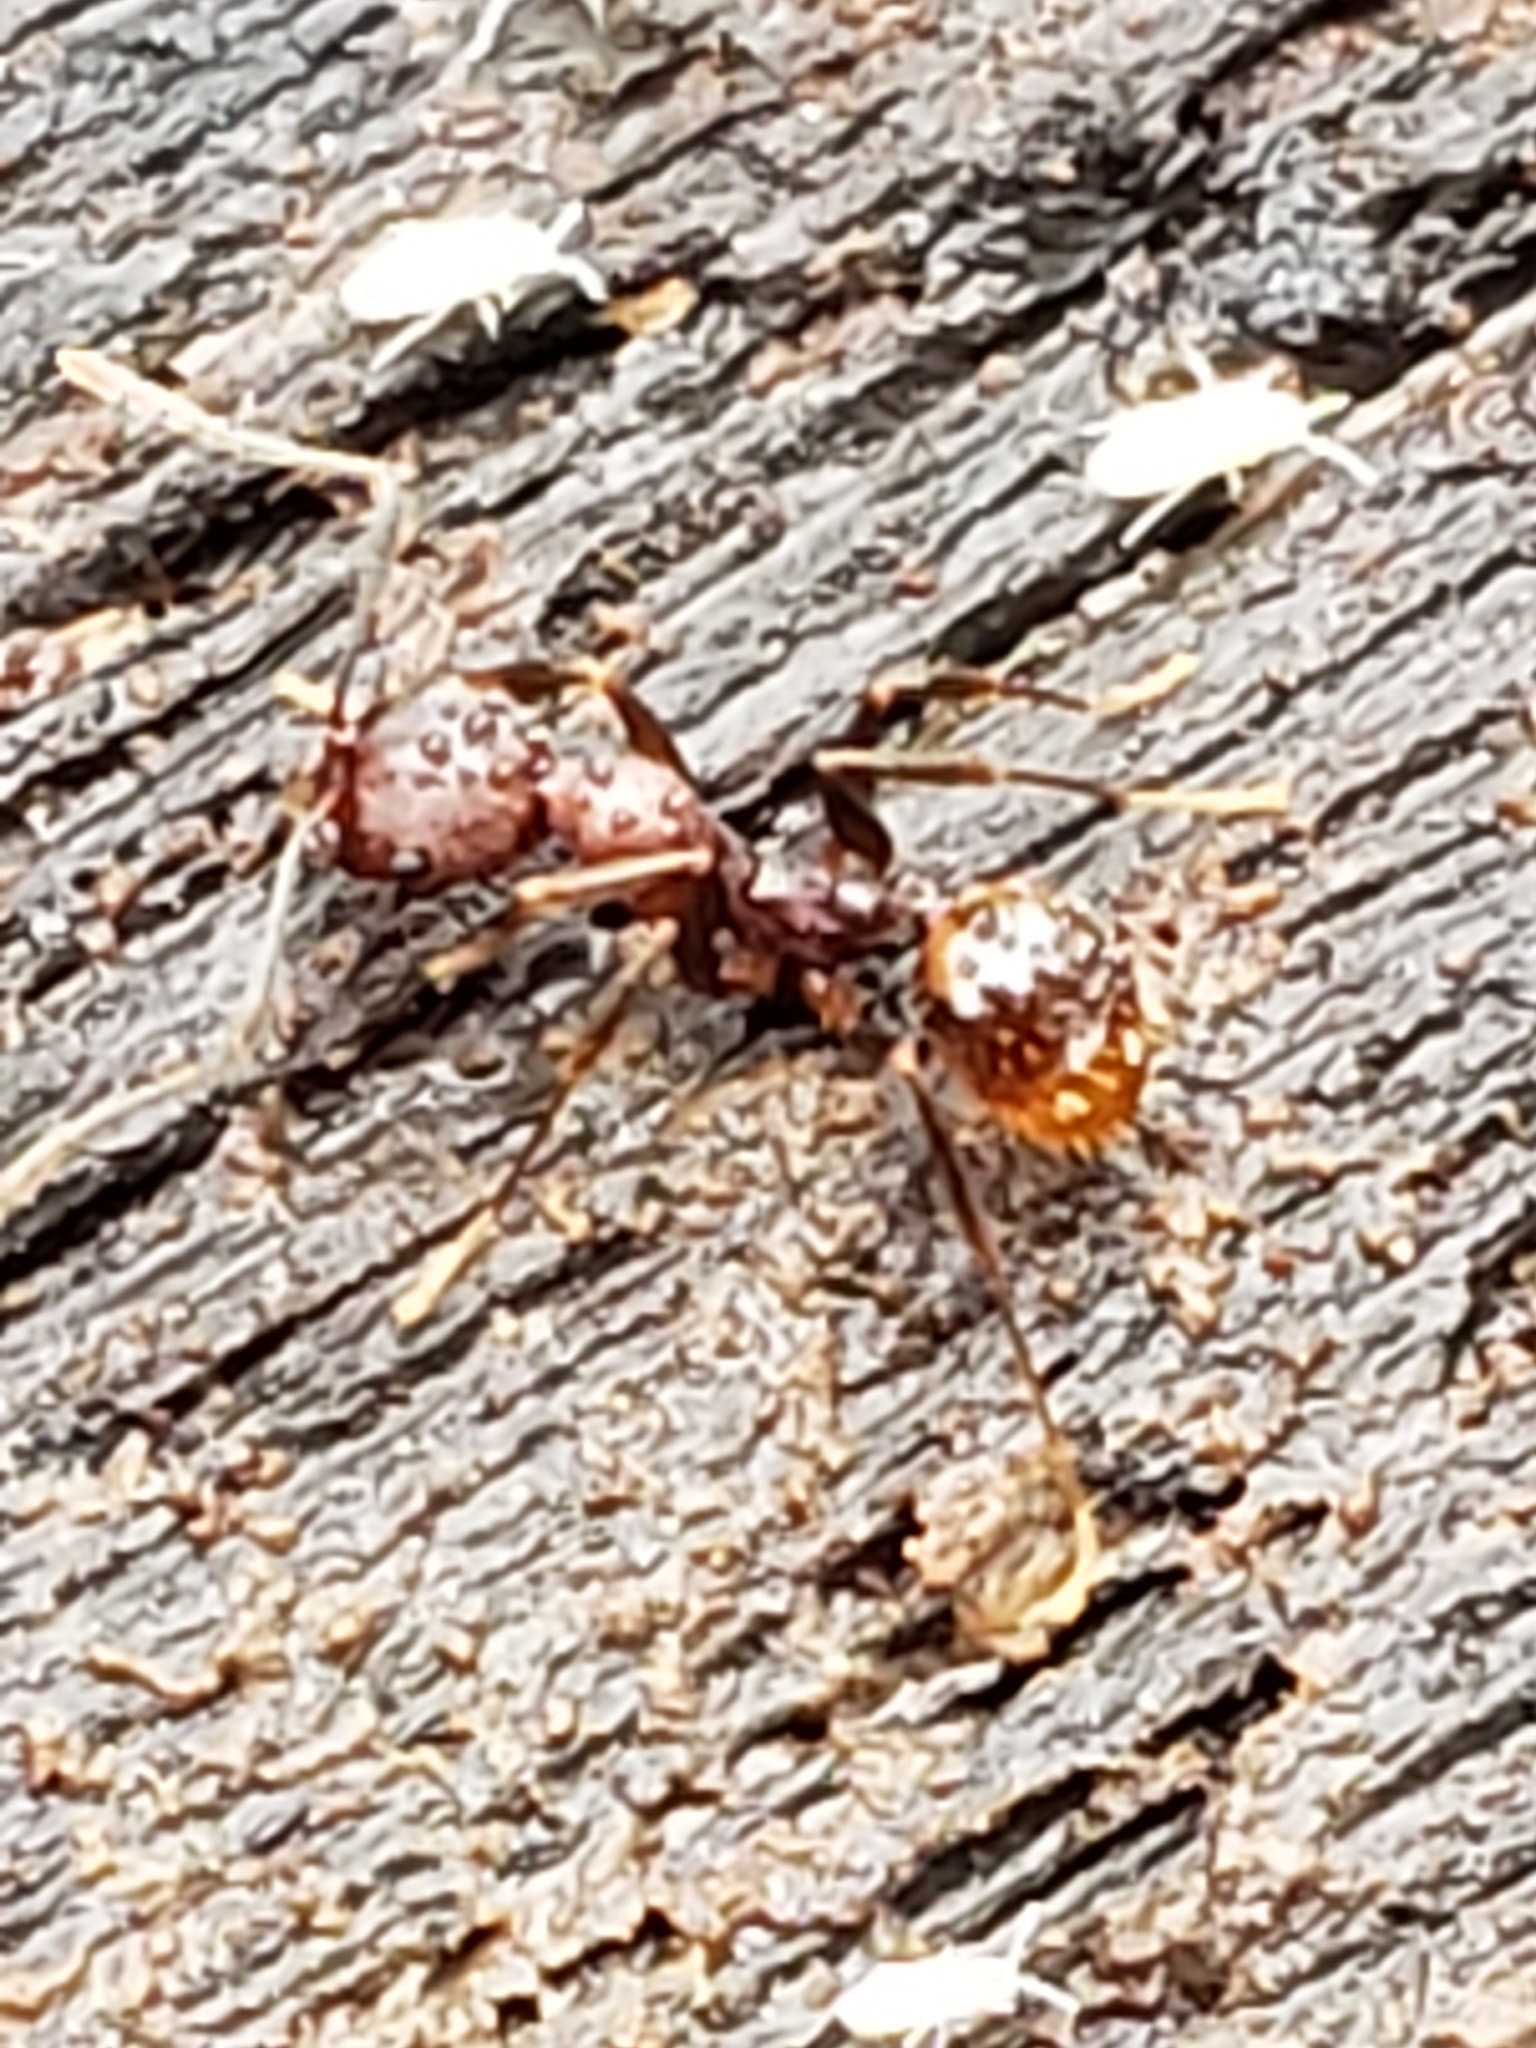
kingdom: Animalia
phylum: Arthropoda
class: Insecta
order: Hymenoptera
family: Formicidae
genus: Aphaenogaster
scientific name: Aphaenogaster fulva
